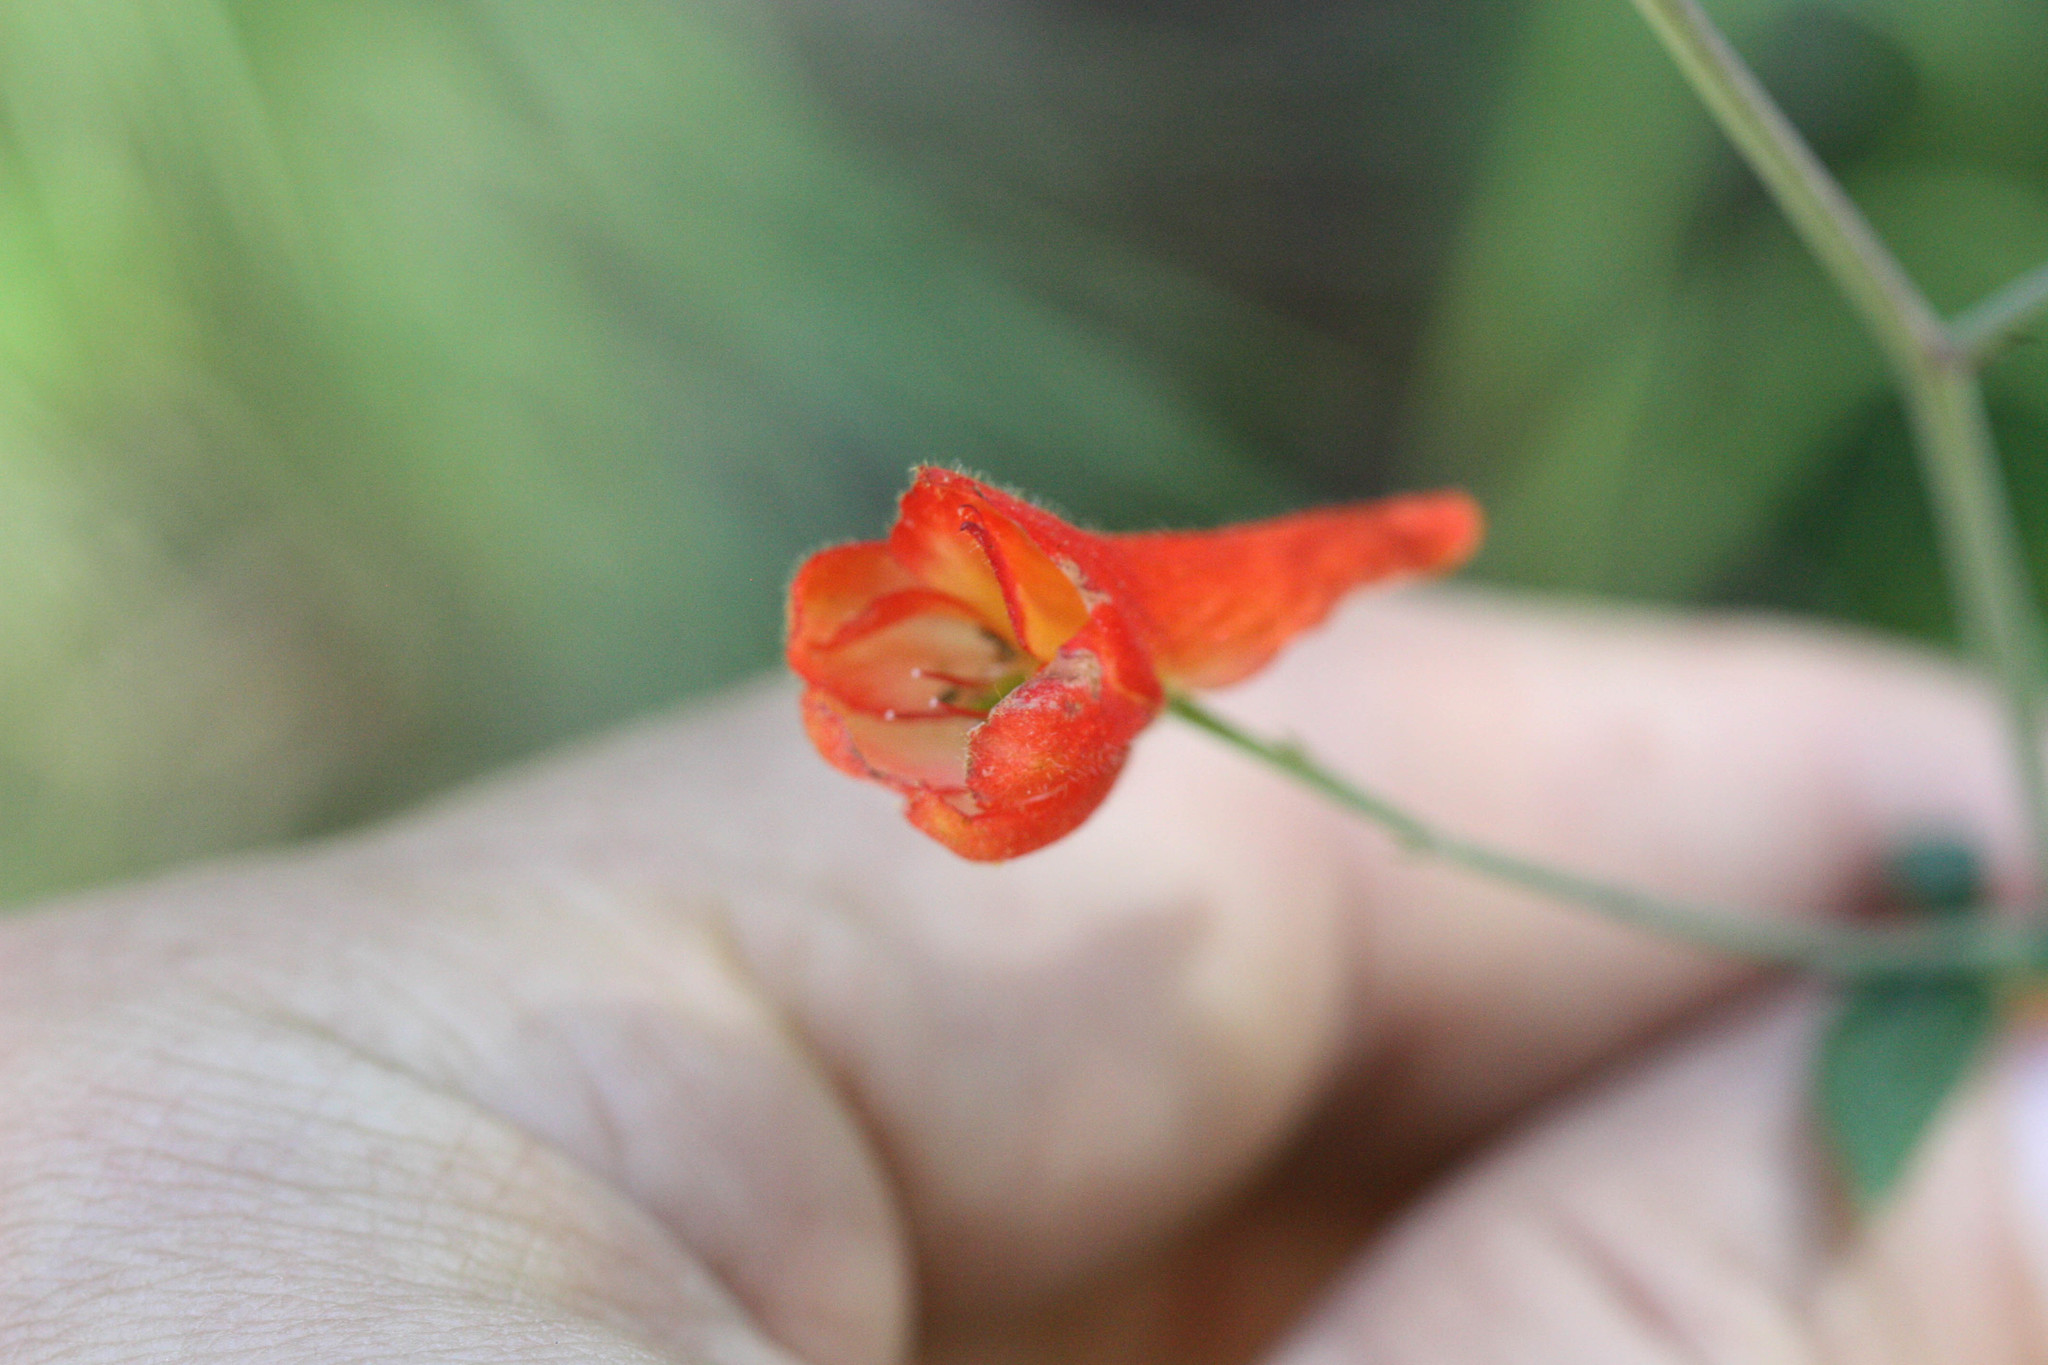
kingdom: Plantae
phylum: Tracheophyta
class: Magnoliopsida
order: Ranunculales
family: Ranunculaceae
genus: Delphinium
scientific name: Delphinium nudicaule
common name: Red larkspur
